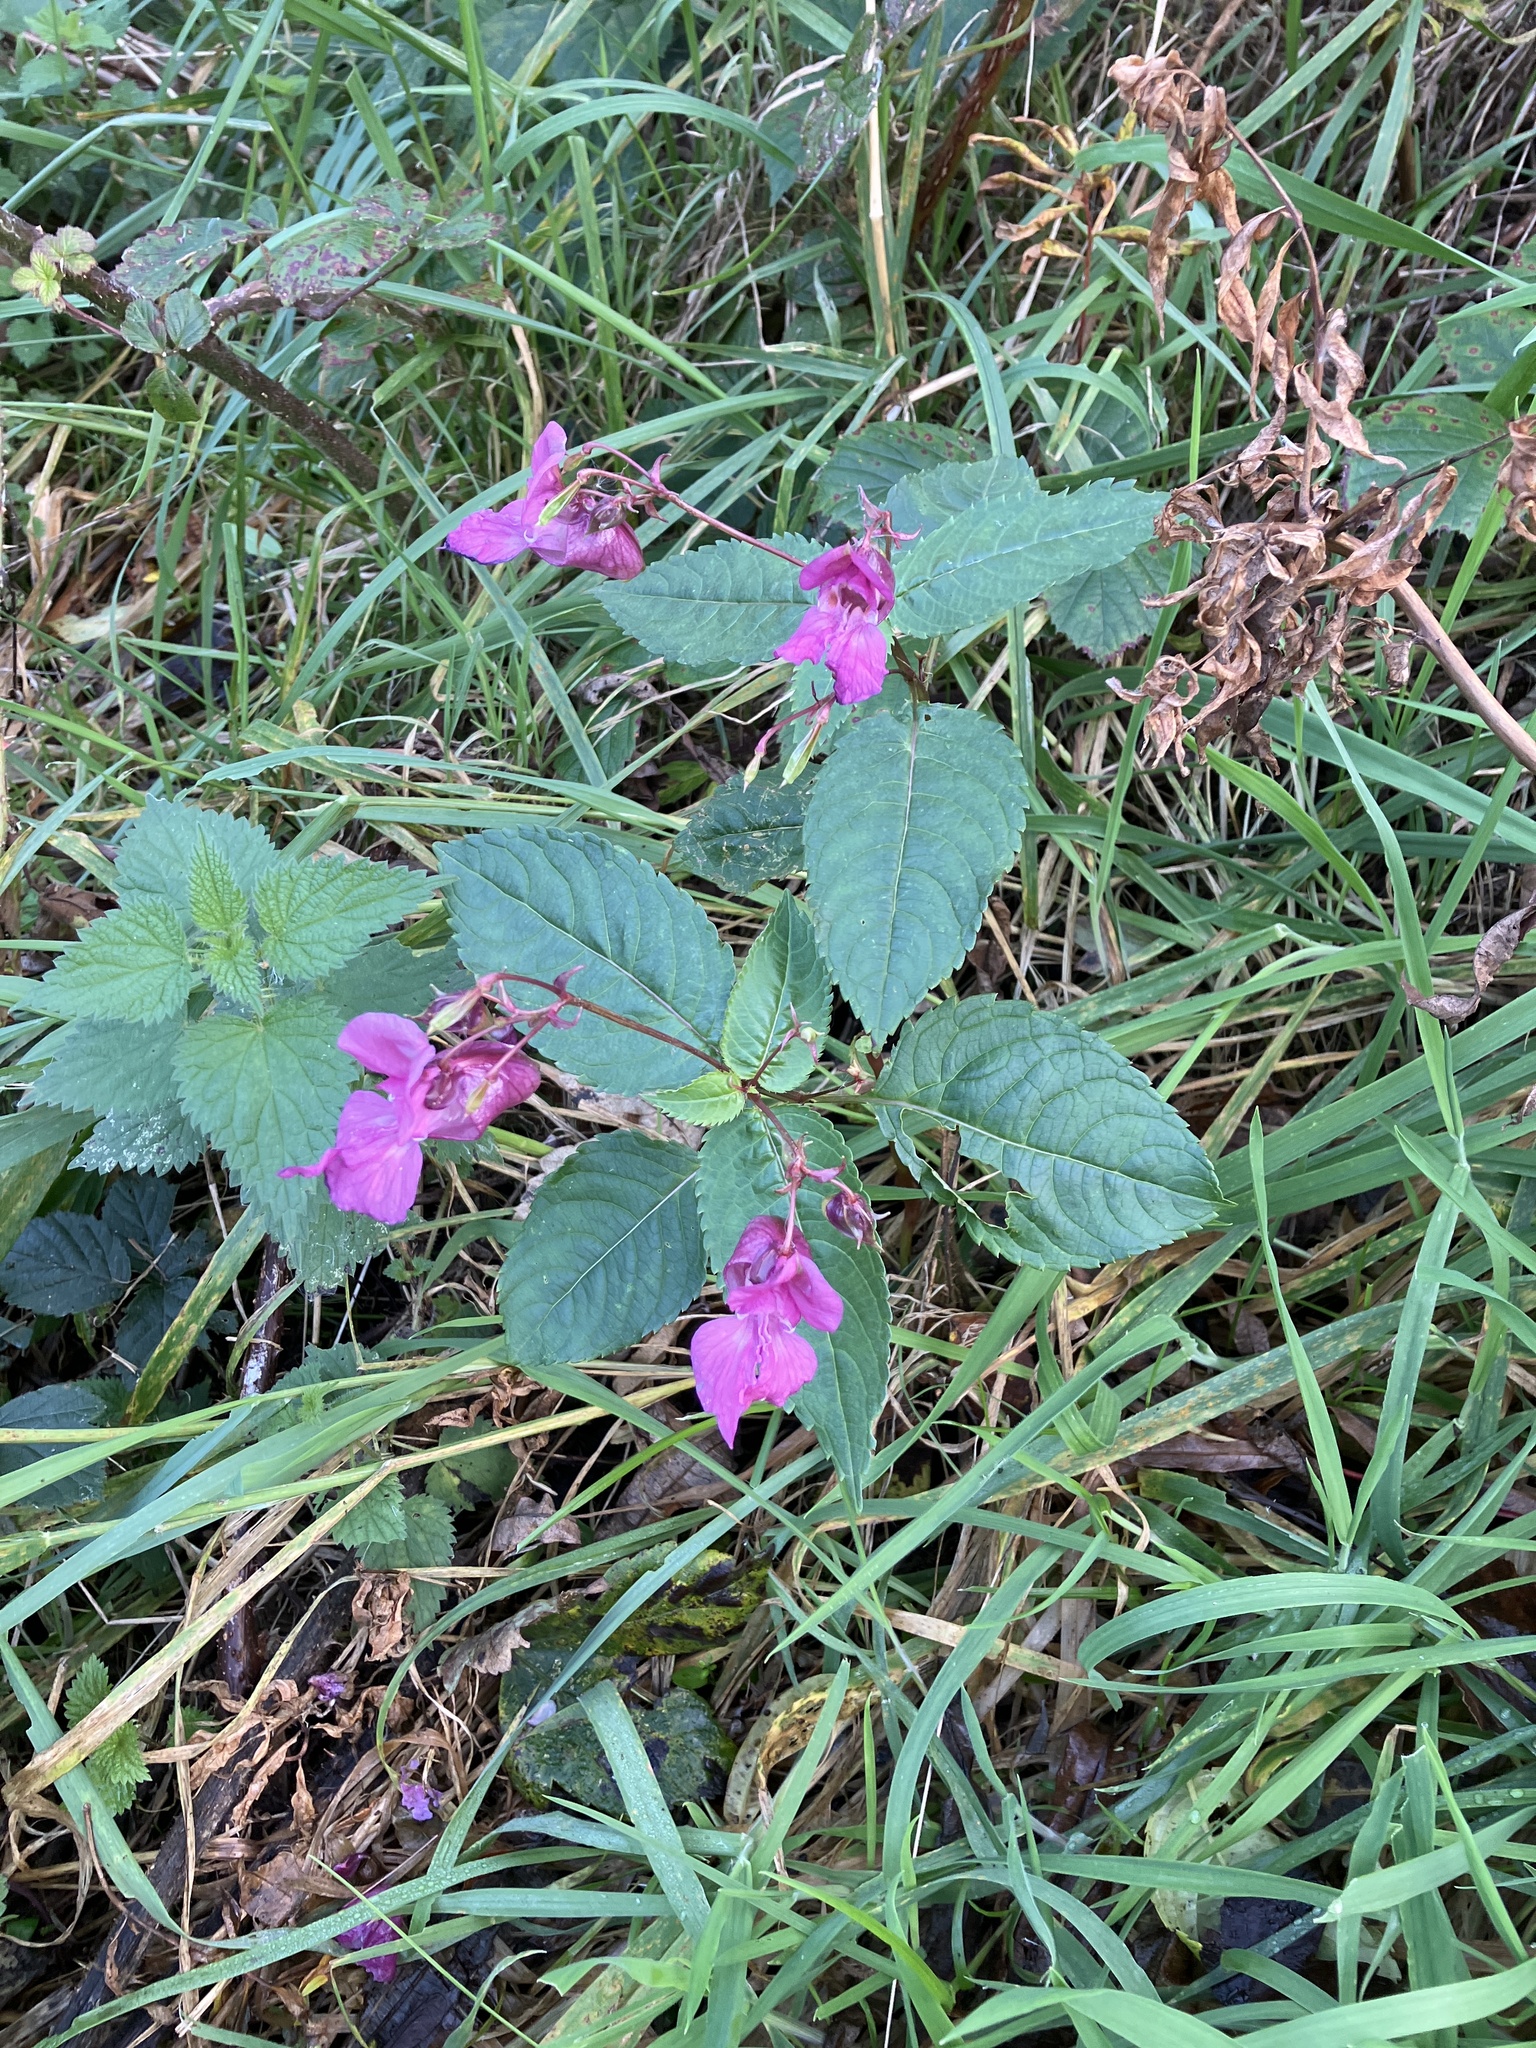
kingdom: Plantae
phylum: Tracheophyta
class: Magnoliopsida
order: Ericales
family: Balsaminaceae
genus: Impatiens
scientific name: Impatiens glandulifera
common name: Himalayan balsam
